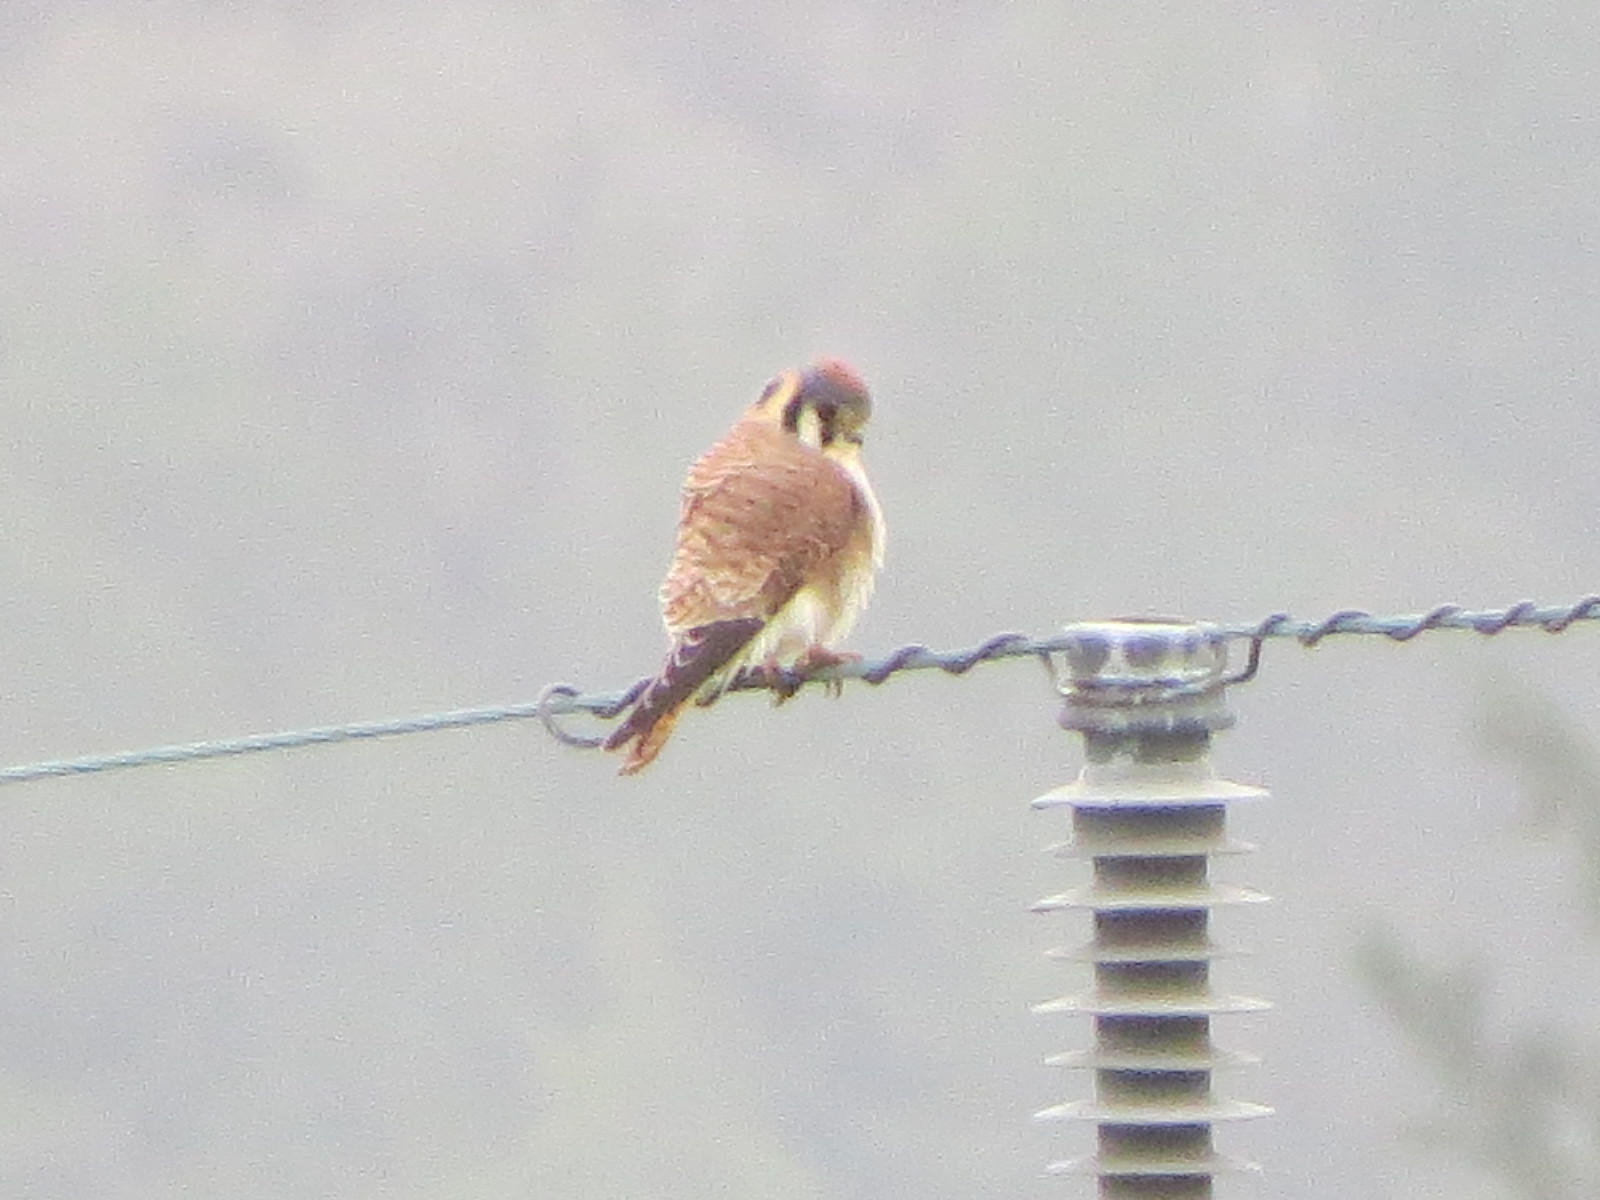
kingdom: Animalia
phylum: Chordata
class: Aves
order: Falconiformes
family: Falconidae
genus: Falco
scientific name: Falco sparverius
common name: American kestrel
